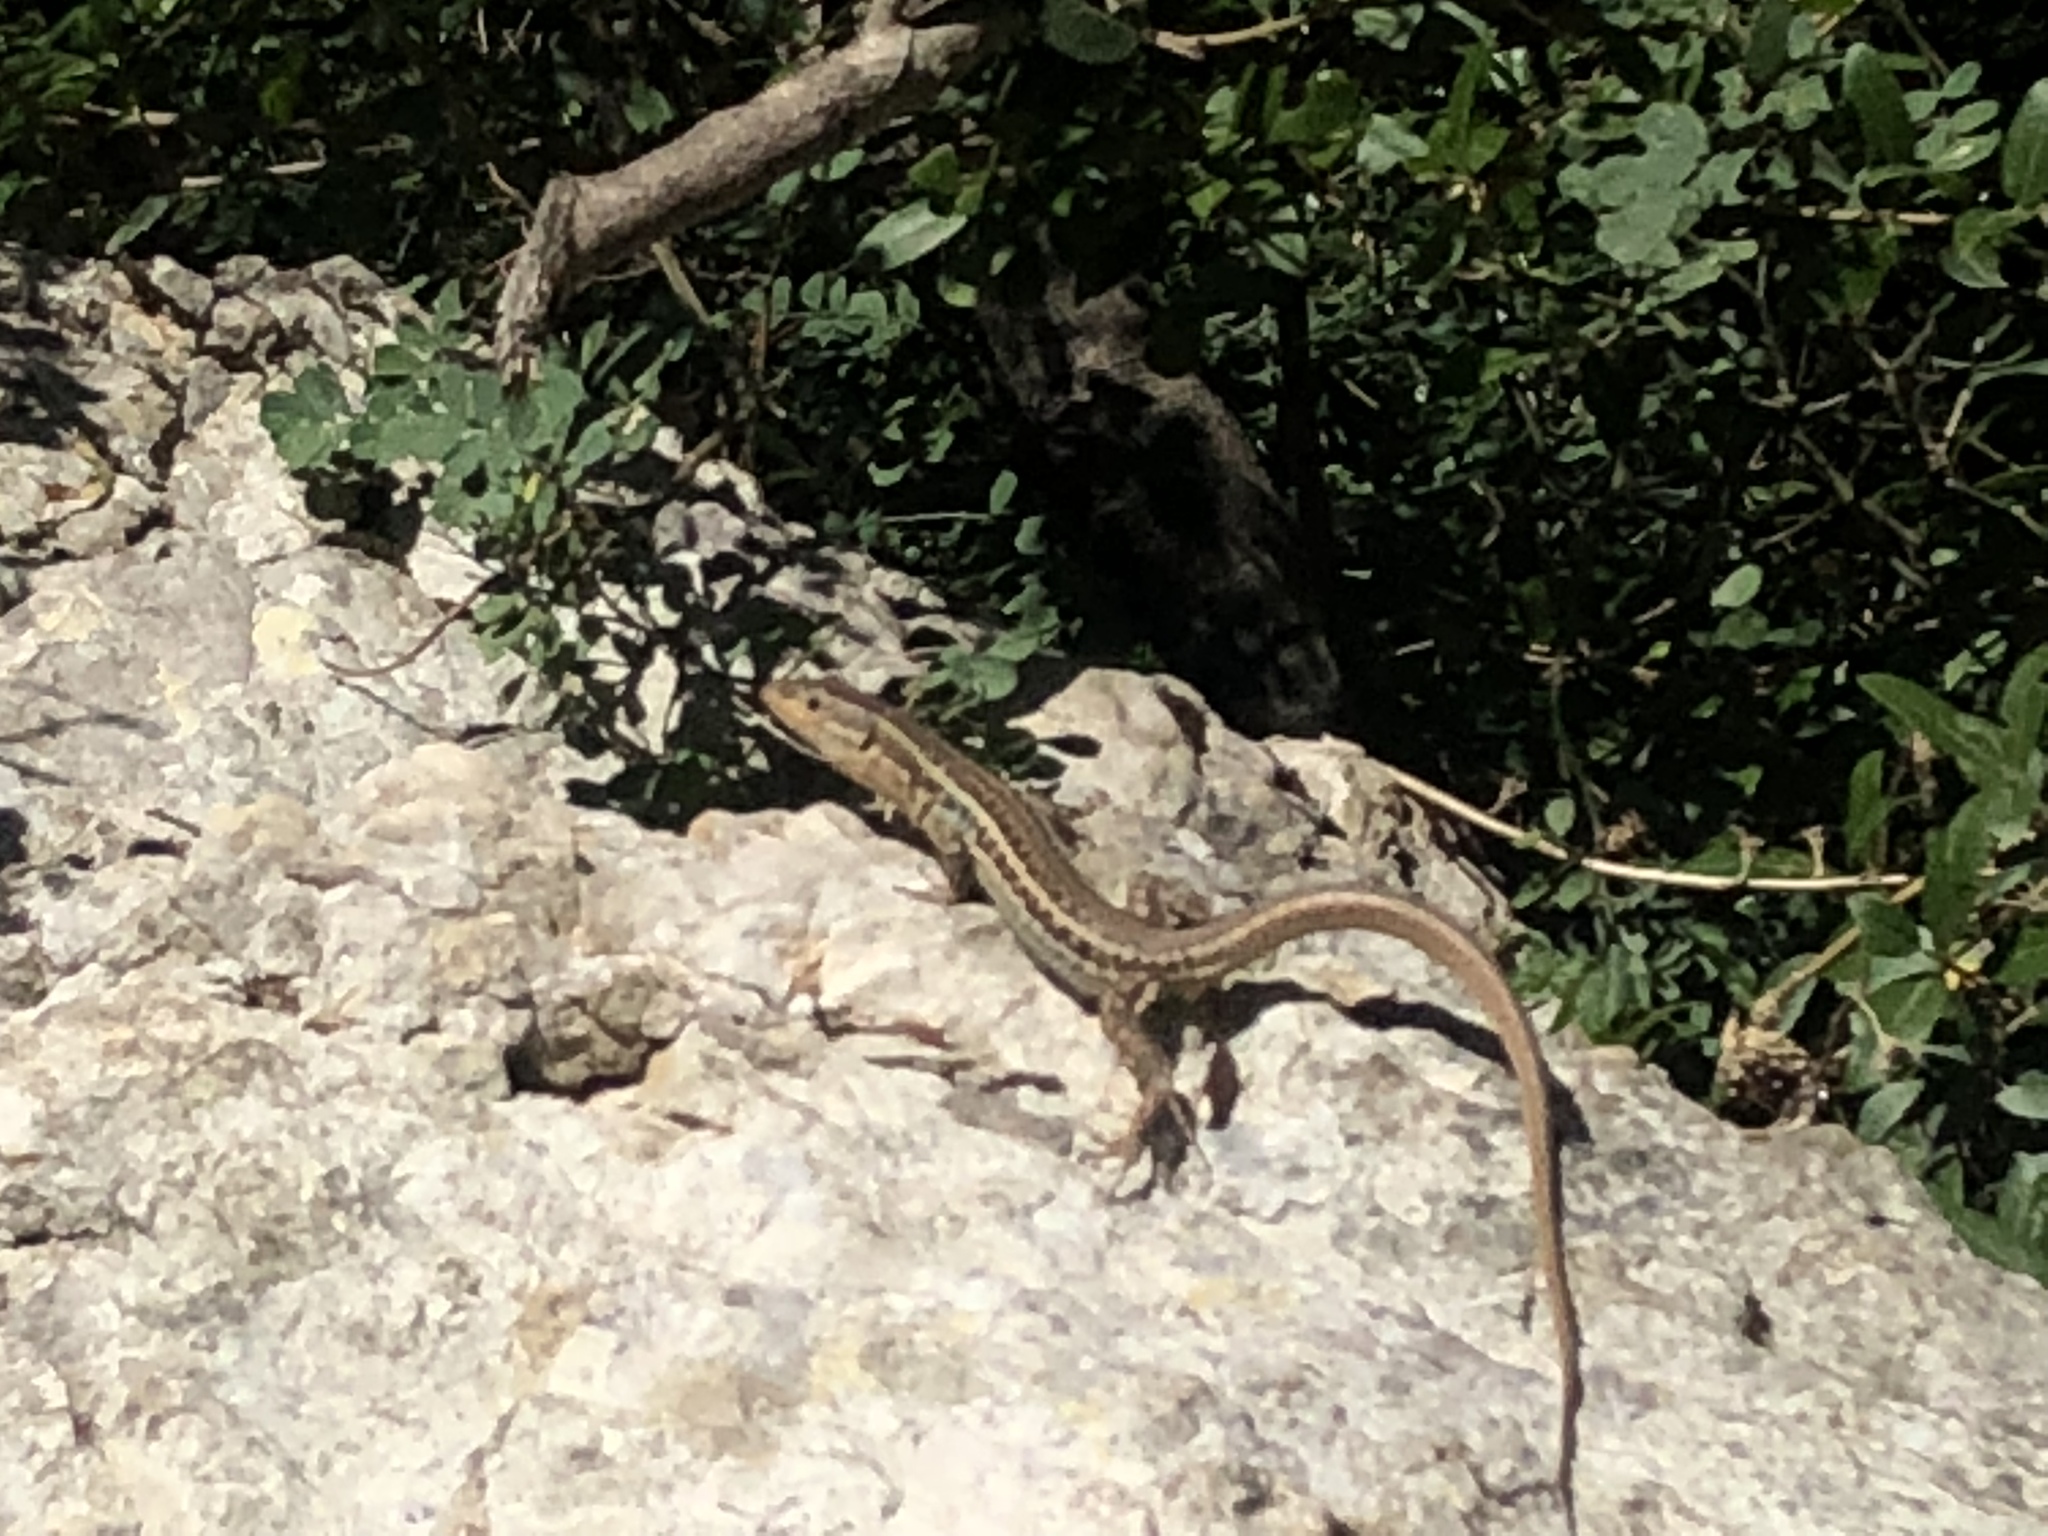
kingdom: Animalia
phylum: Chordata
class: Squamata
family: Lacertidae
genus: Podarcis
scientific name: Podarcis peloponnesiacus
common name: Peloponnese wall lizard
